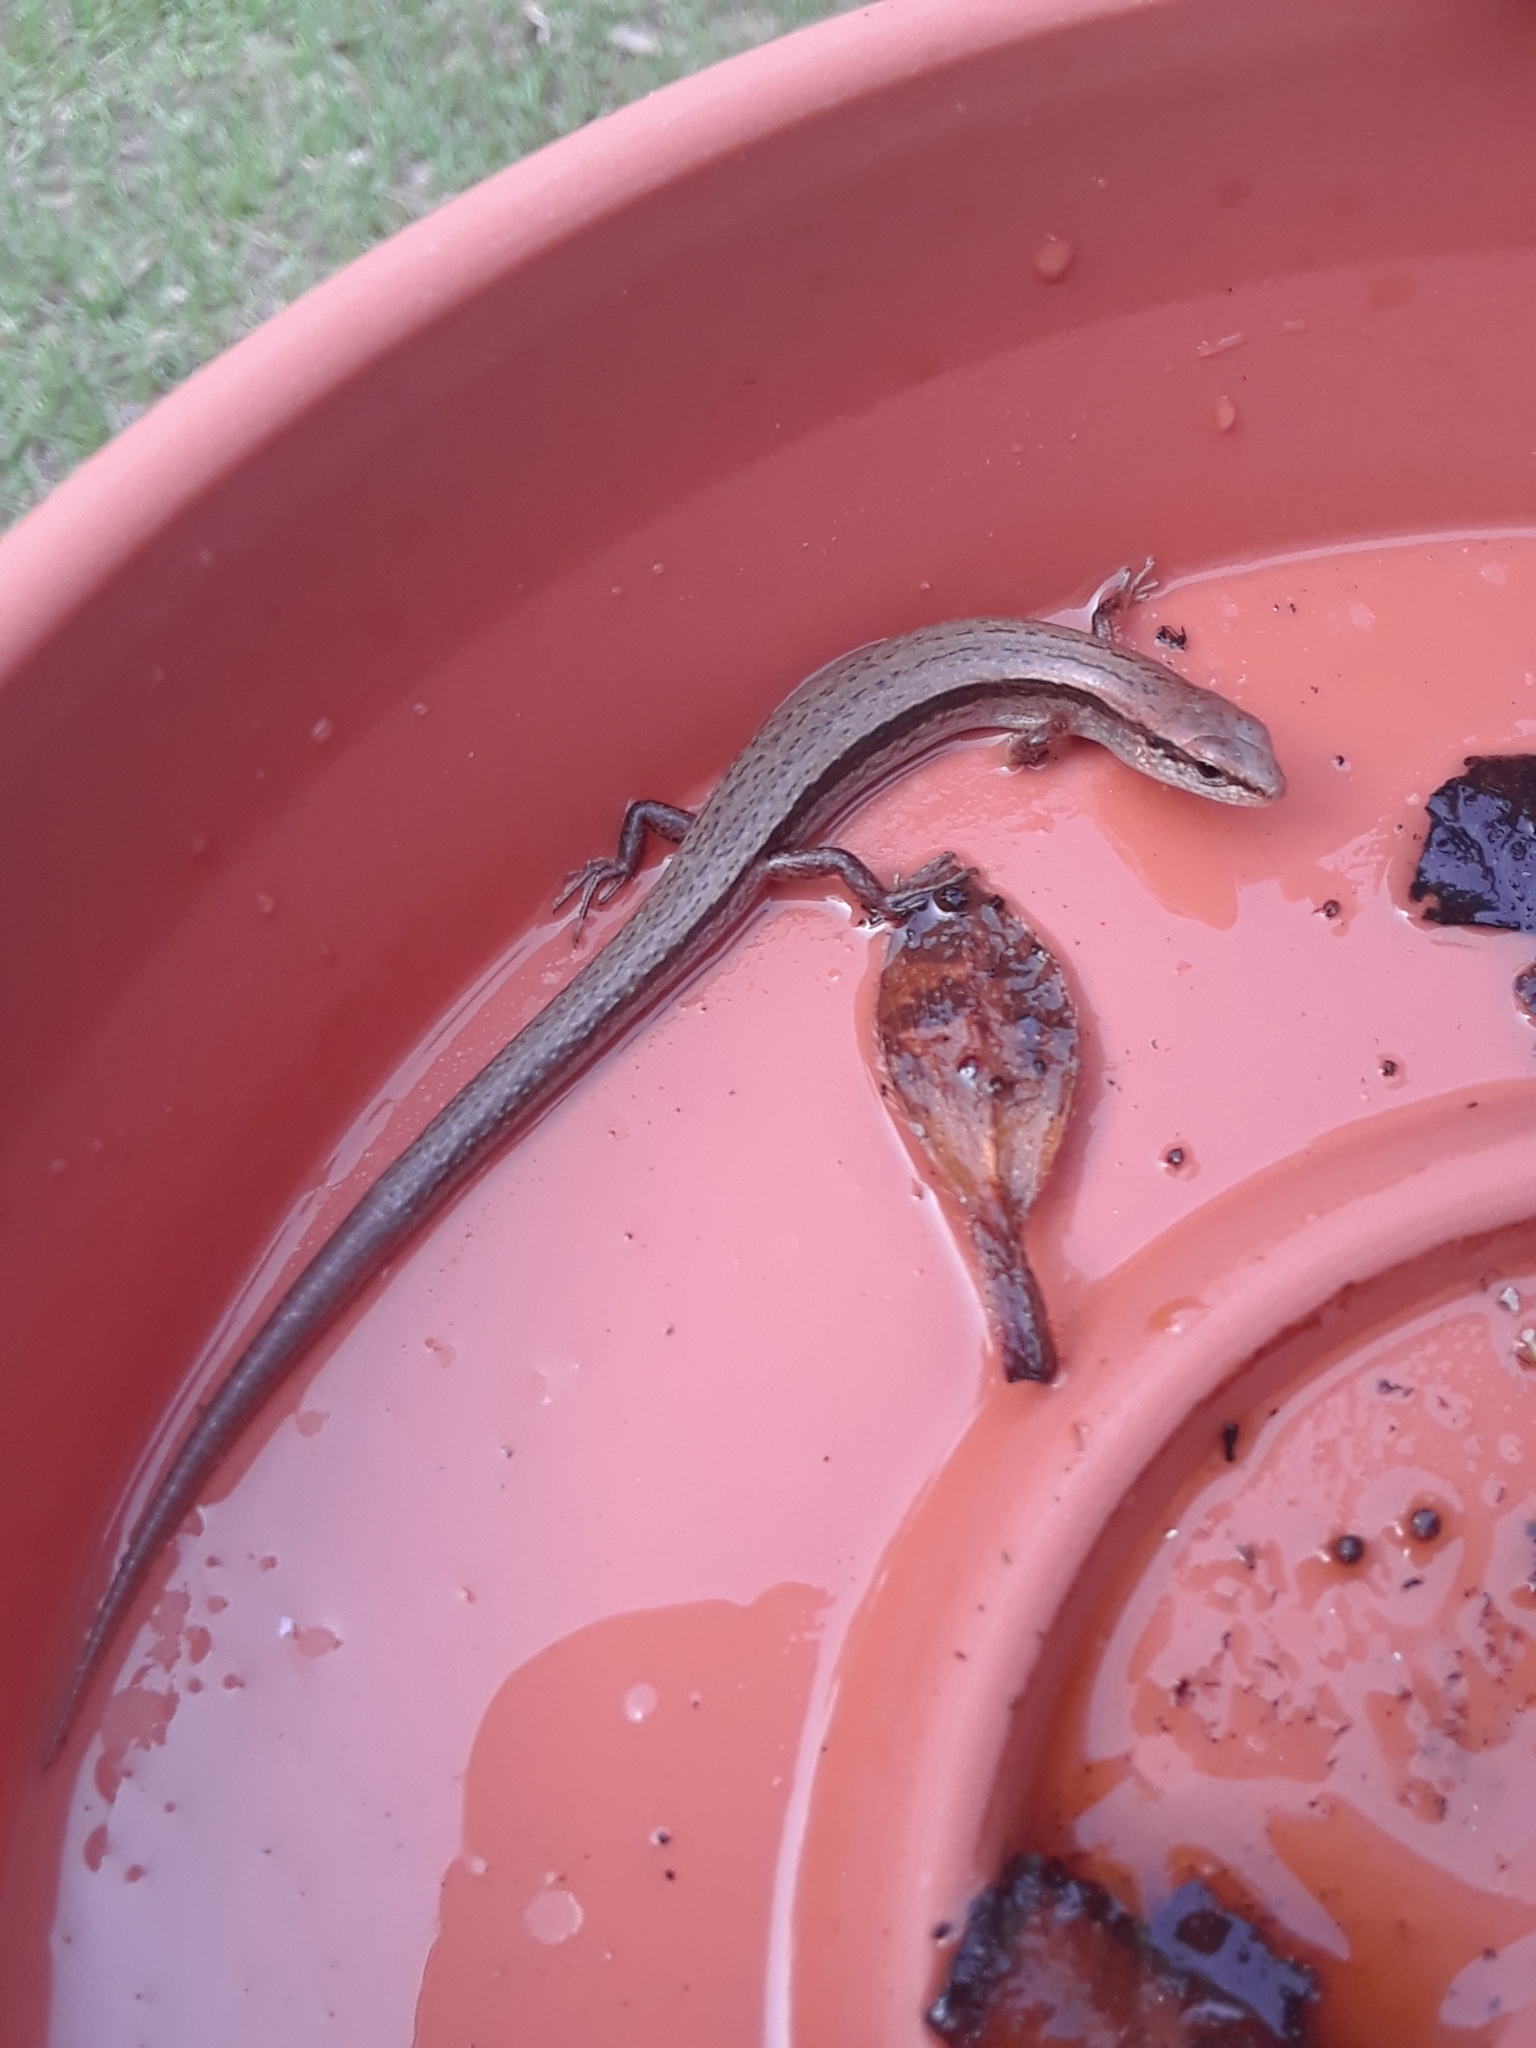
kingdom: Animalia
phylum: Chordata
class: Squamata
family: Scincidae
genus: Scincella
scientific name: Scincella lateralis
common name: Ground skink
